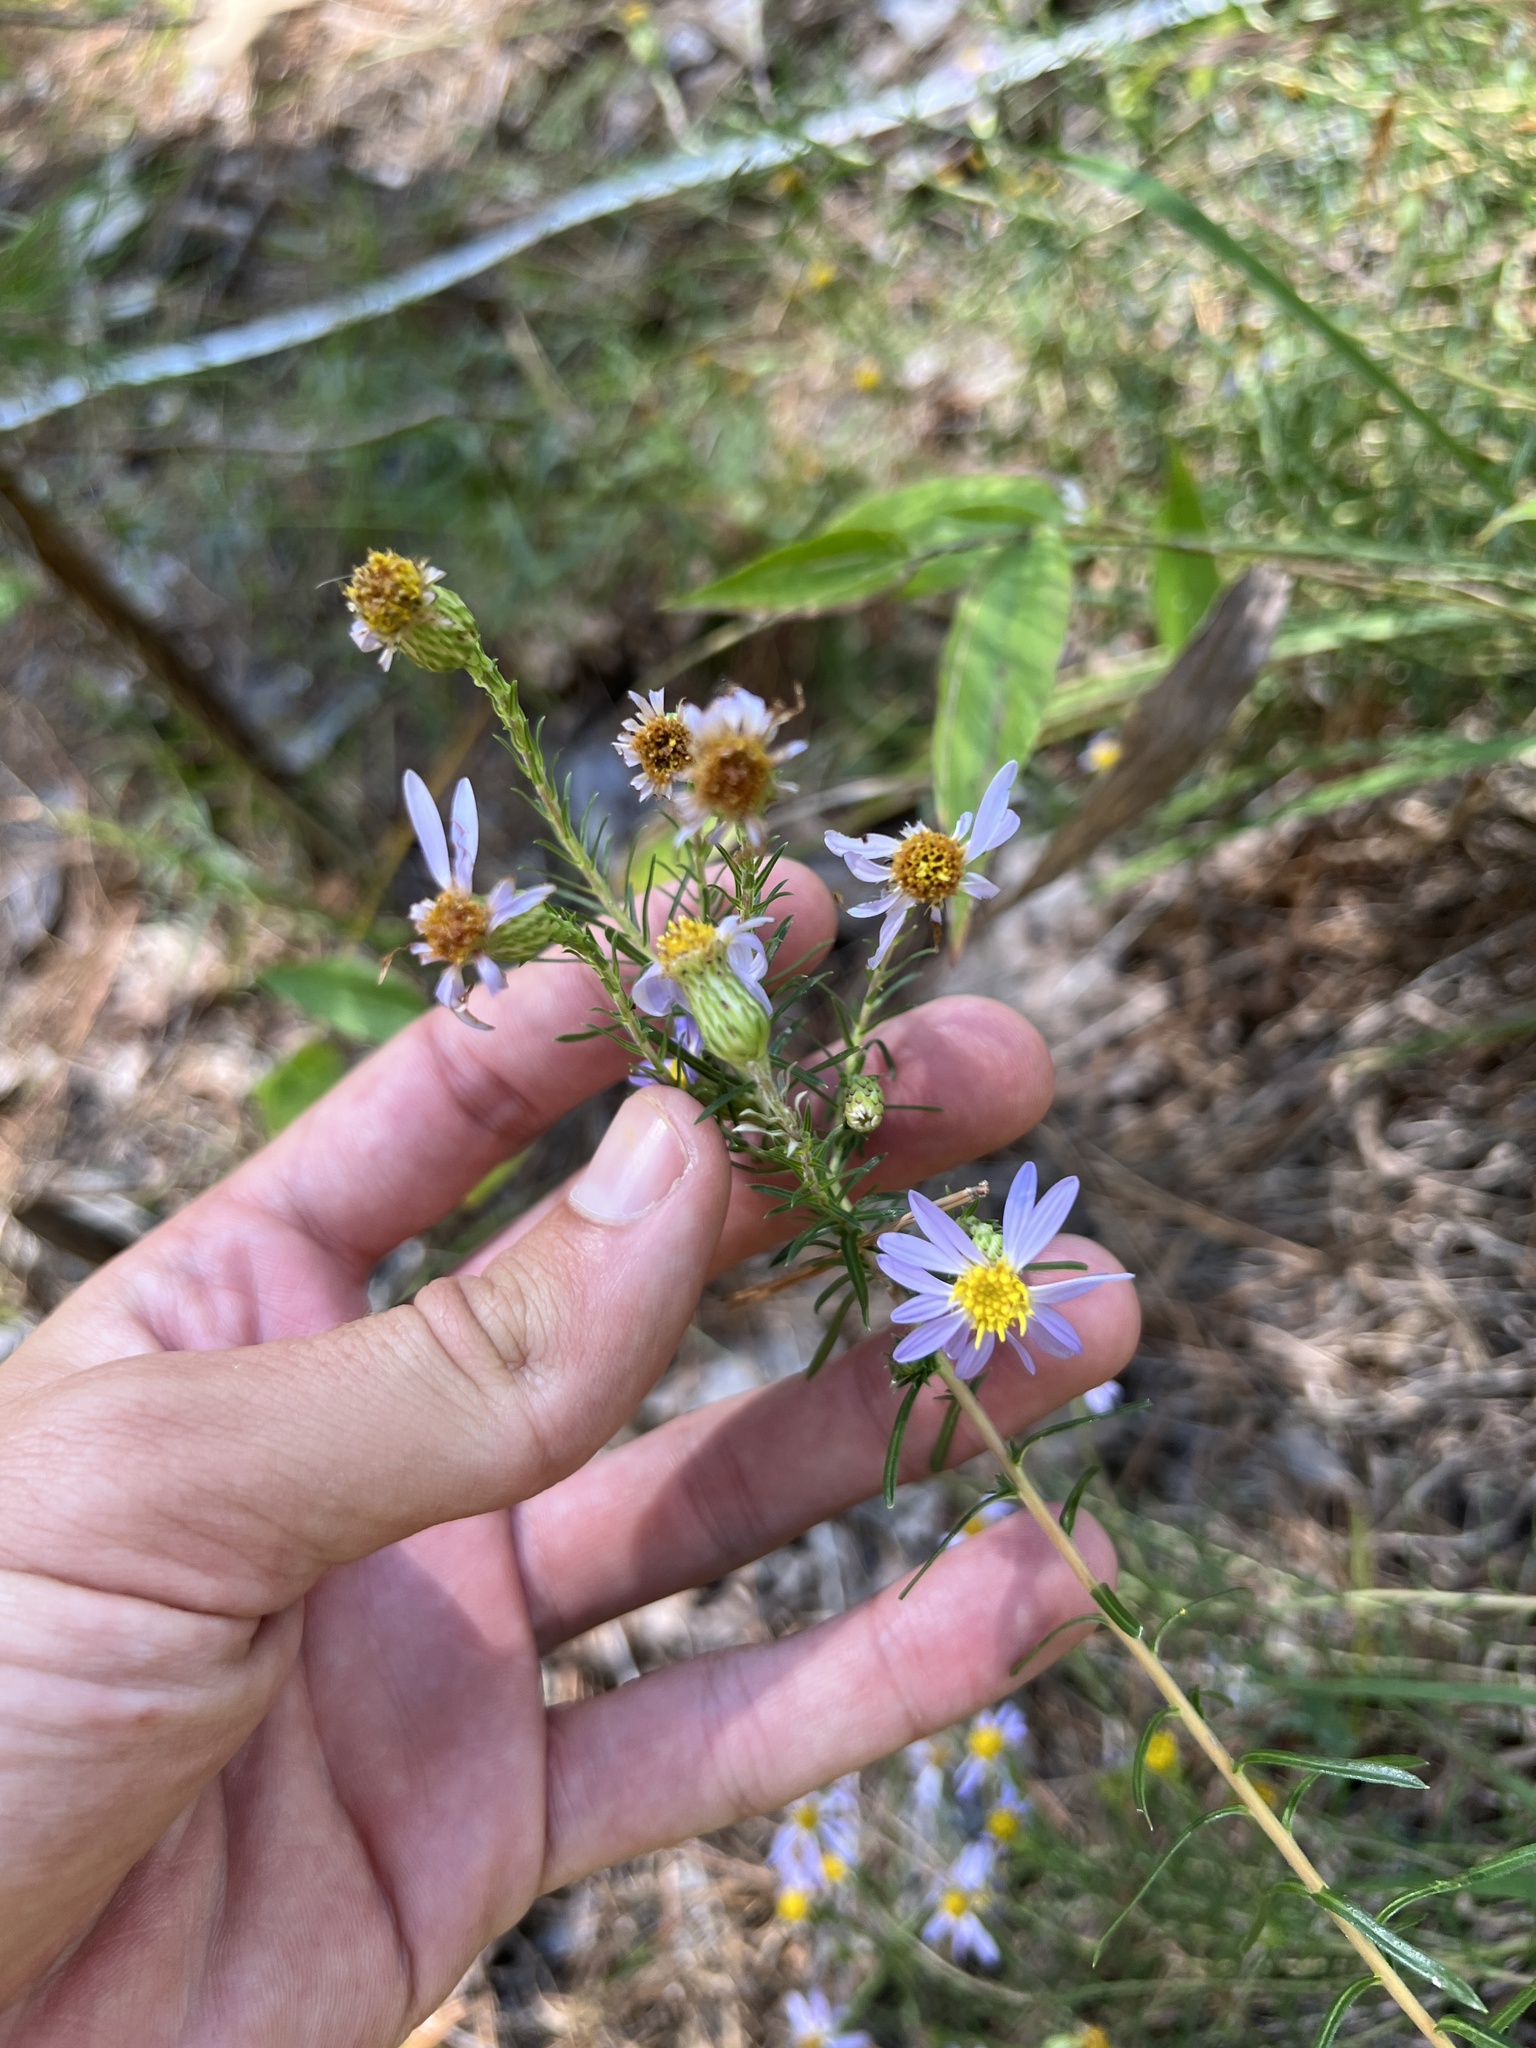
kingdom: Plantae
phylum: Tracheophyta
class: Magnoliopsida
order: Asterales
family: Asteraceae
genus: Ionactis
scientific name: Ionactis linariifolia
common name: Flax-leaf aster
